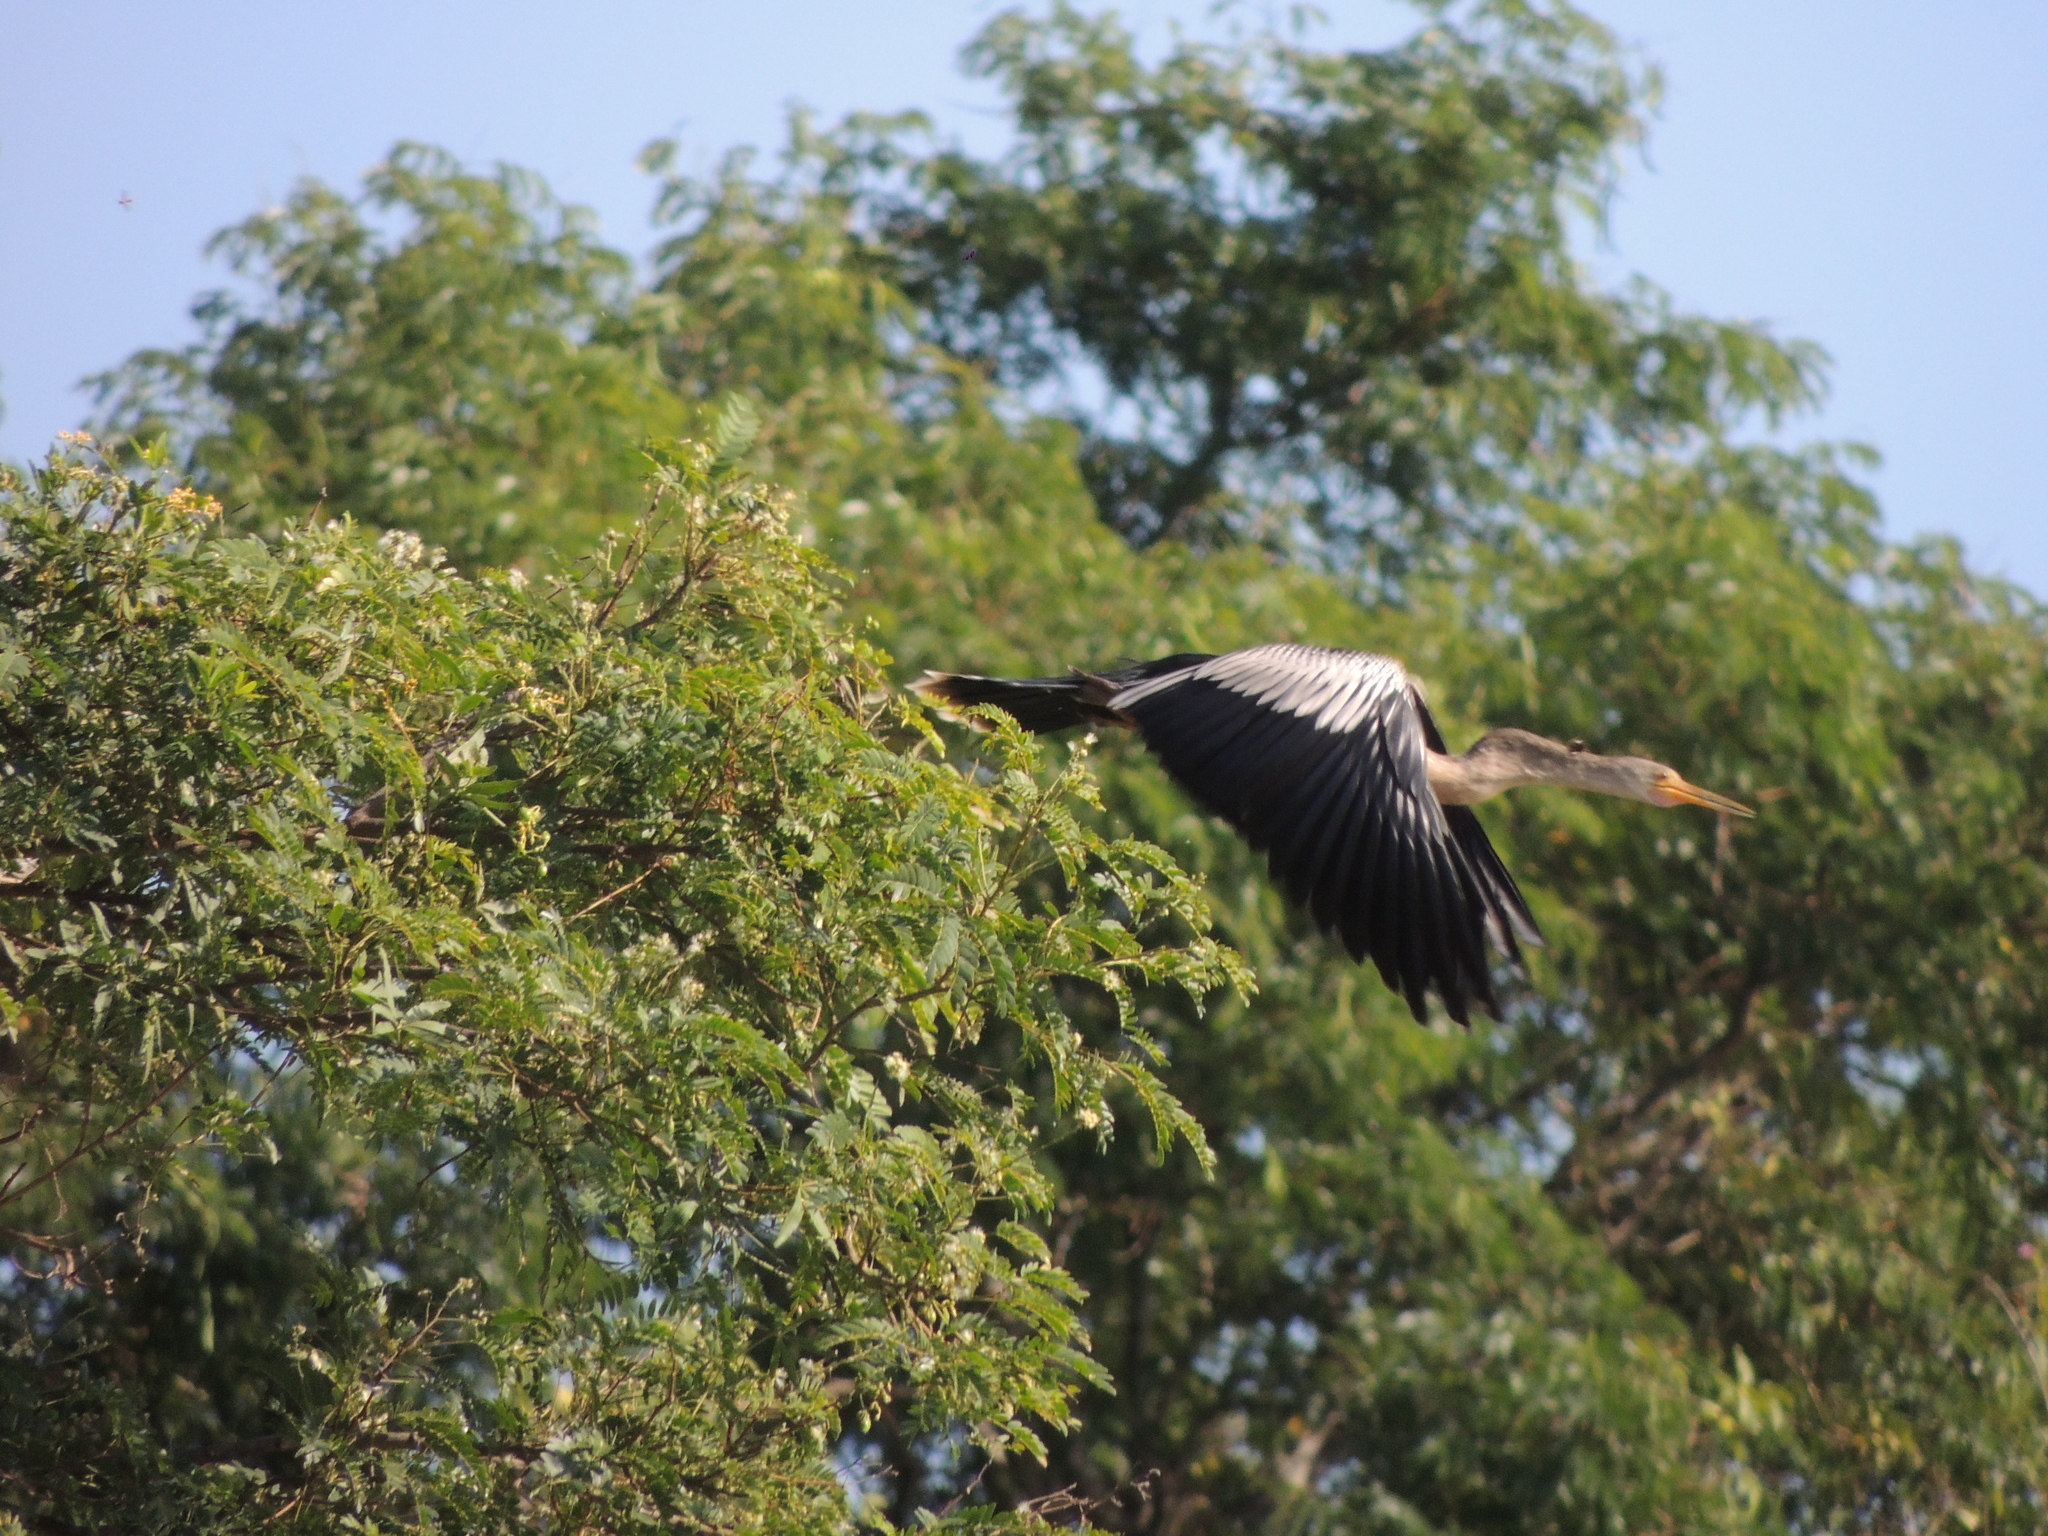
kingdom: Animalia
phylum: Chordata
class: Aves
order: Suliformes
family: Anhingidae
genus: Anhinga
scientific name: Anhinga anhinga
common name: Anhinga
